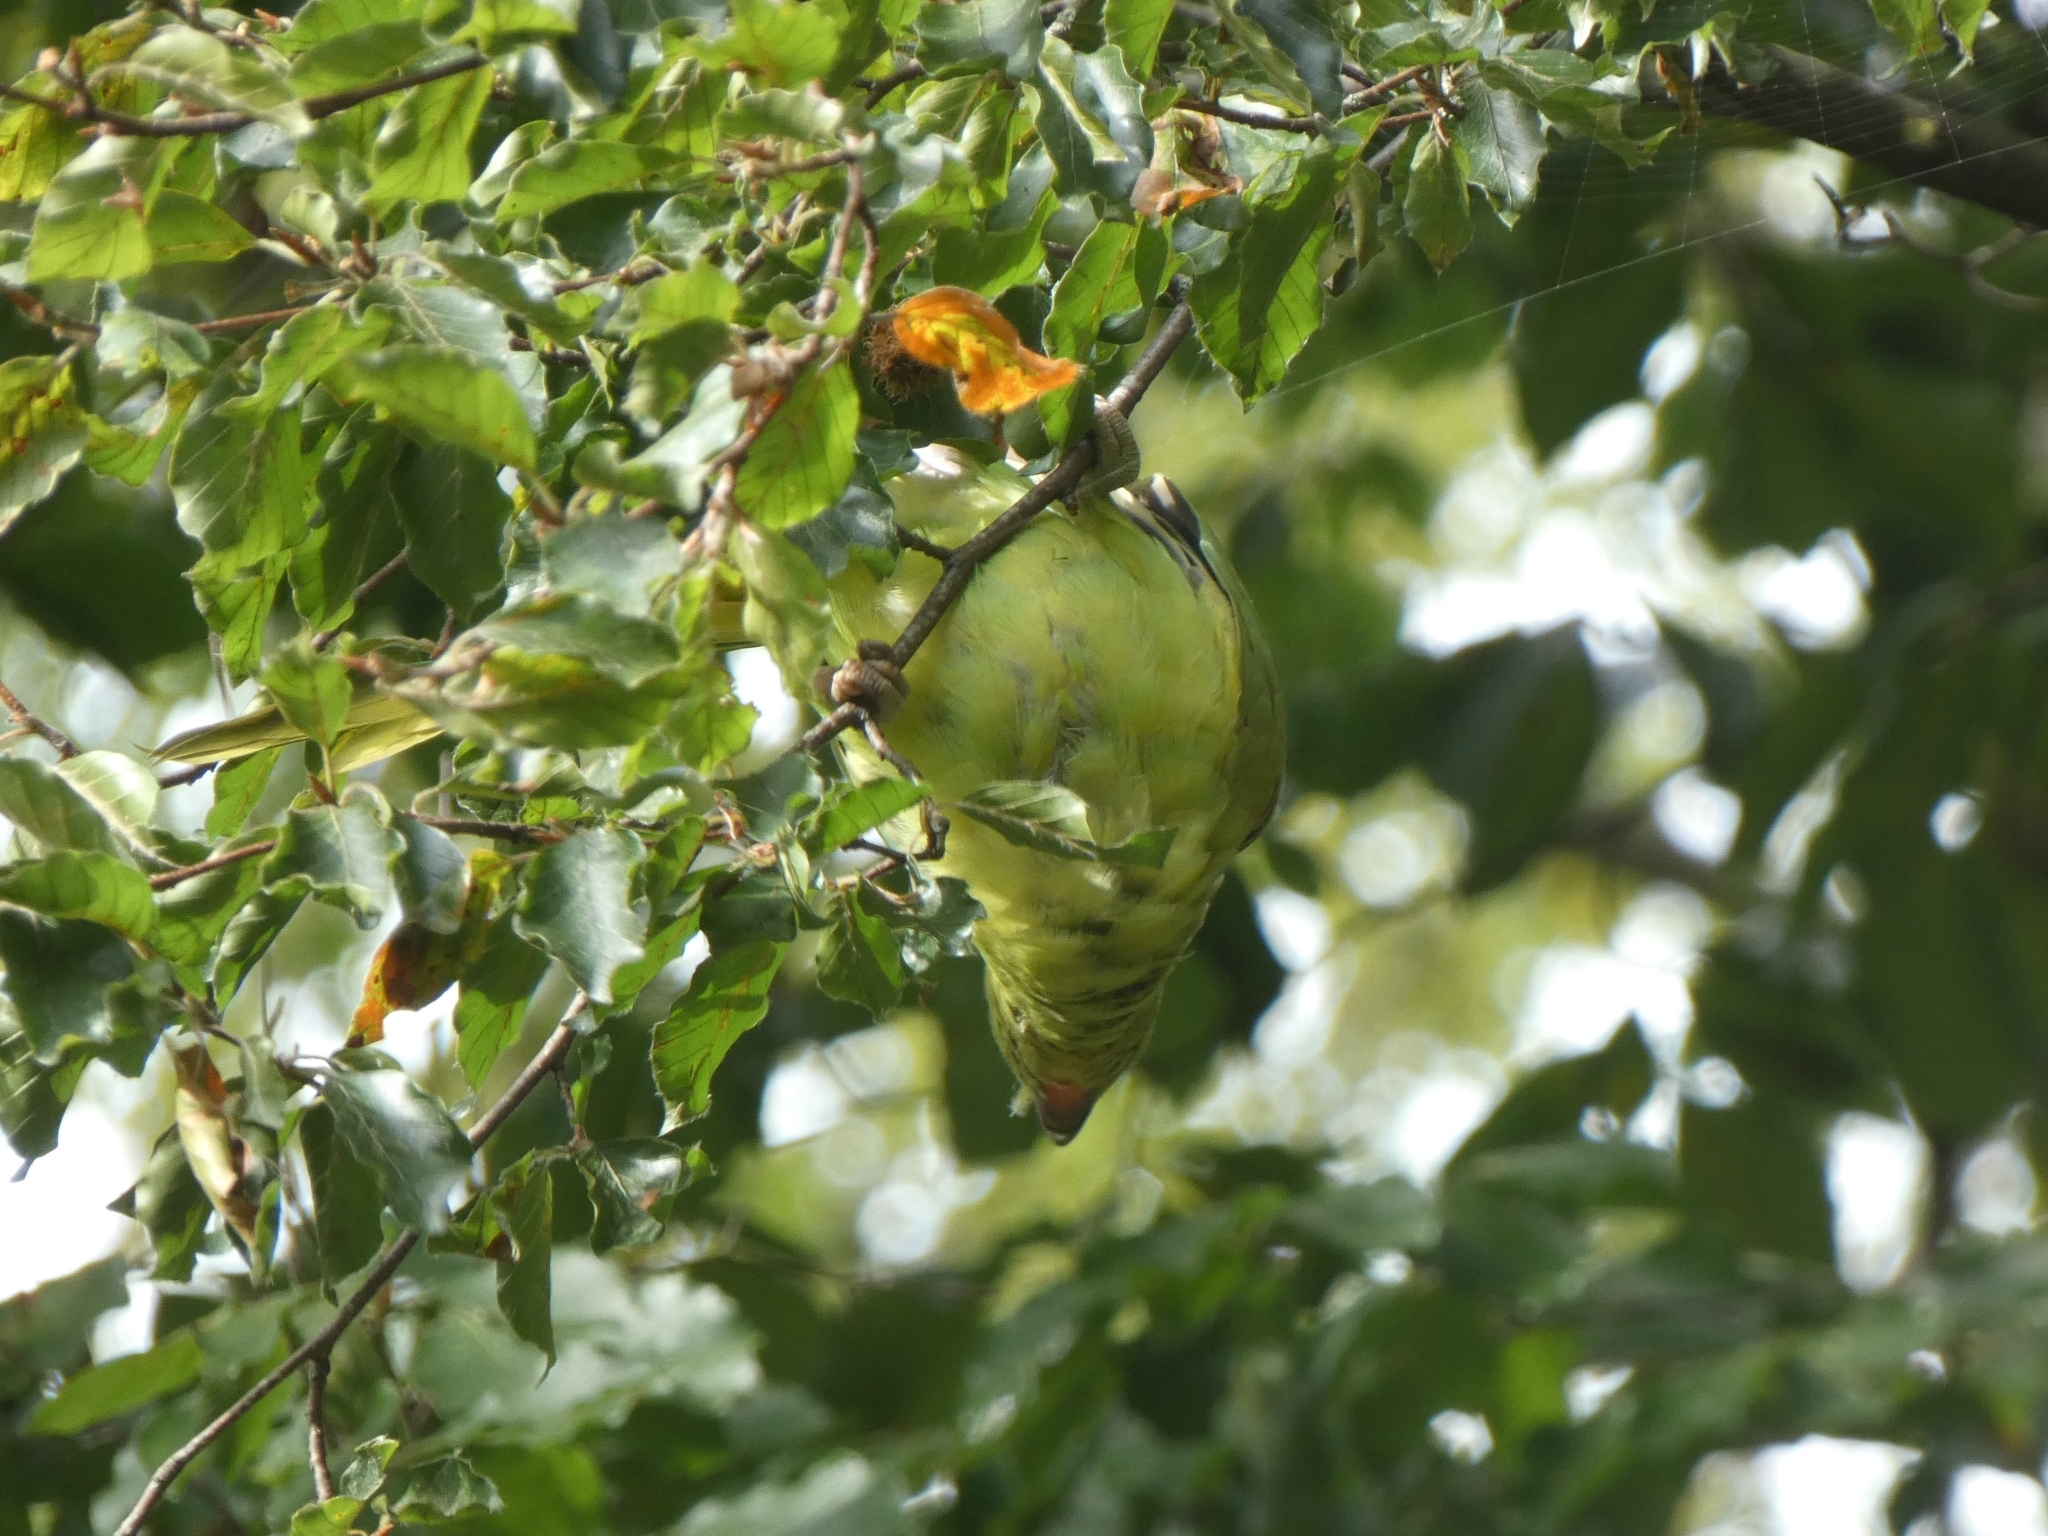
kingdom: Animalia
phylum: Chordata
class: Aves
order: Psittaciformes
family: Psittacidae
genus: Psittacula
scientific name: Psittacula krameri
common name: Rose-ringed parakeet
